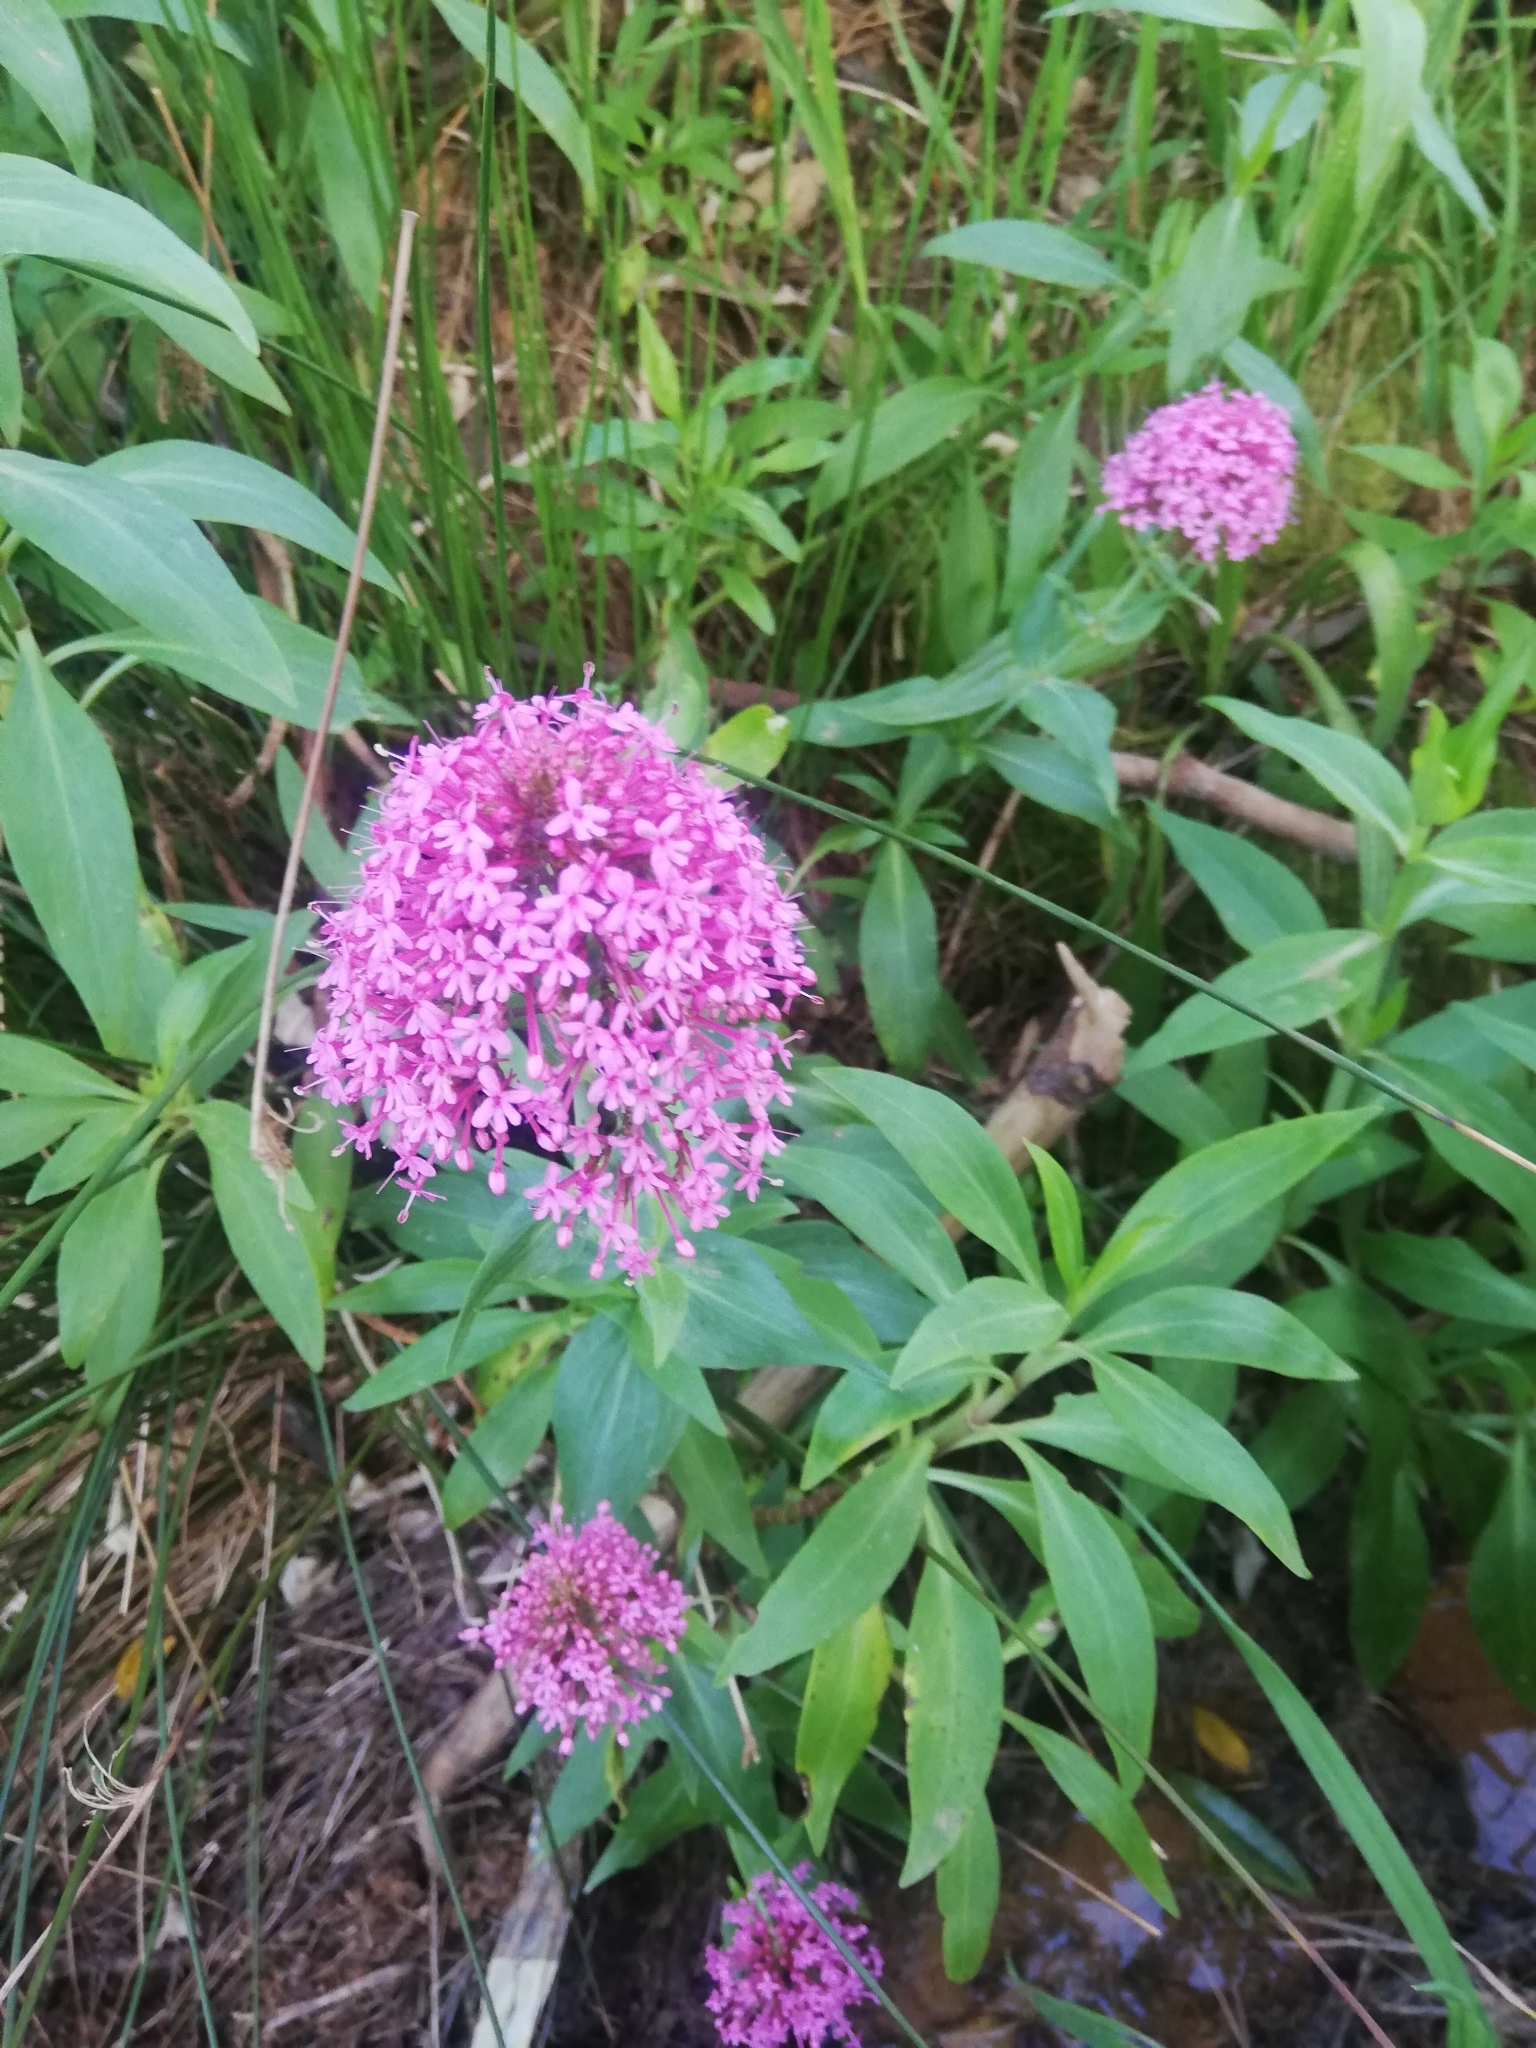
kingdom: Plantae
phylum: Tracheophyta
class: Magnoliopsida
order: Dipsacales
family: Caprifoliaceae
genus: Centranthus
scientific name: Centranthus ruber
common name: Red valerian
